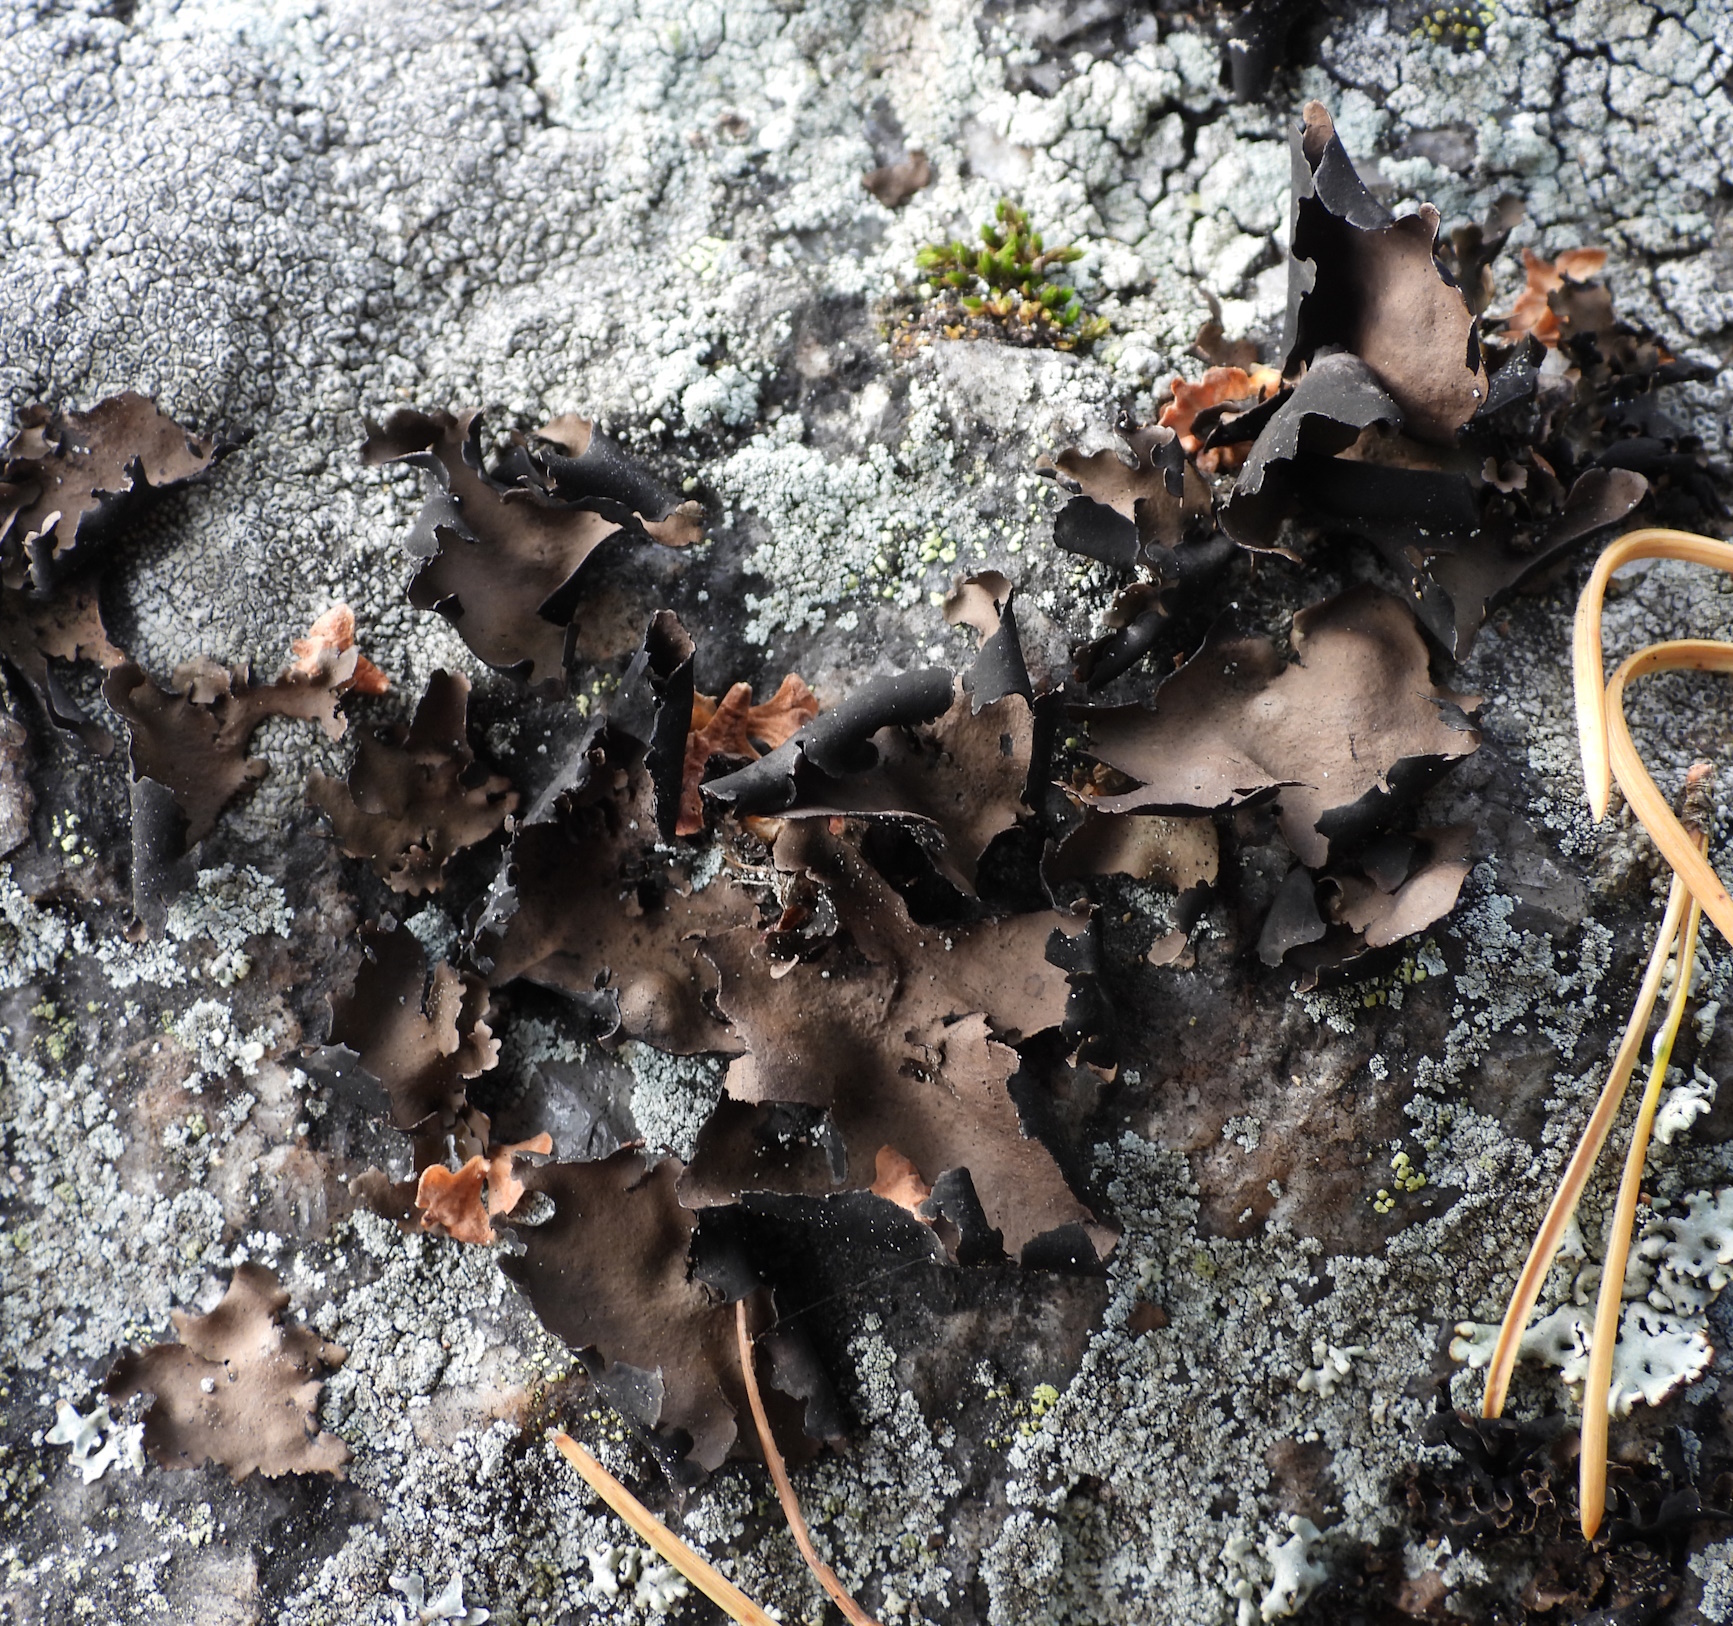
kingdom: Fungi
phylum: Ascomycota
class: Lecanoromycetes
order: Umbilicariales
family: Umbilicariaceae
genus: Umbilicaria
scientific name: Umbilicaria polyphylla
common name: Petalled rocktripe lichen
